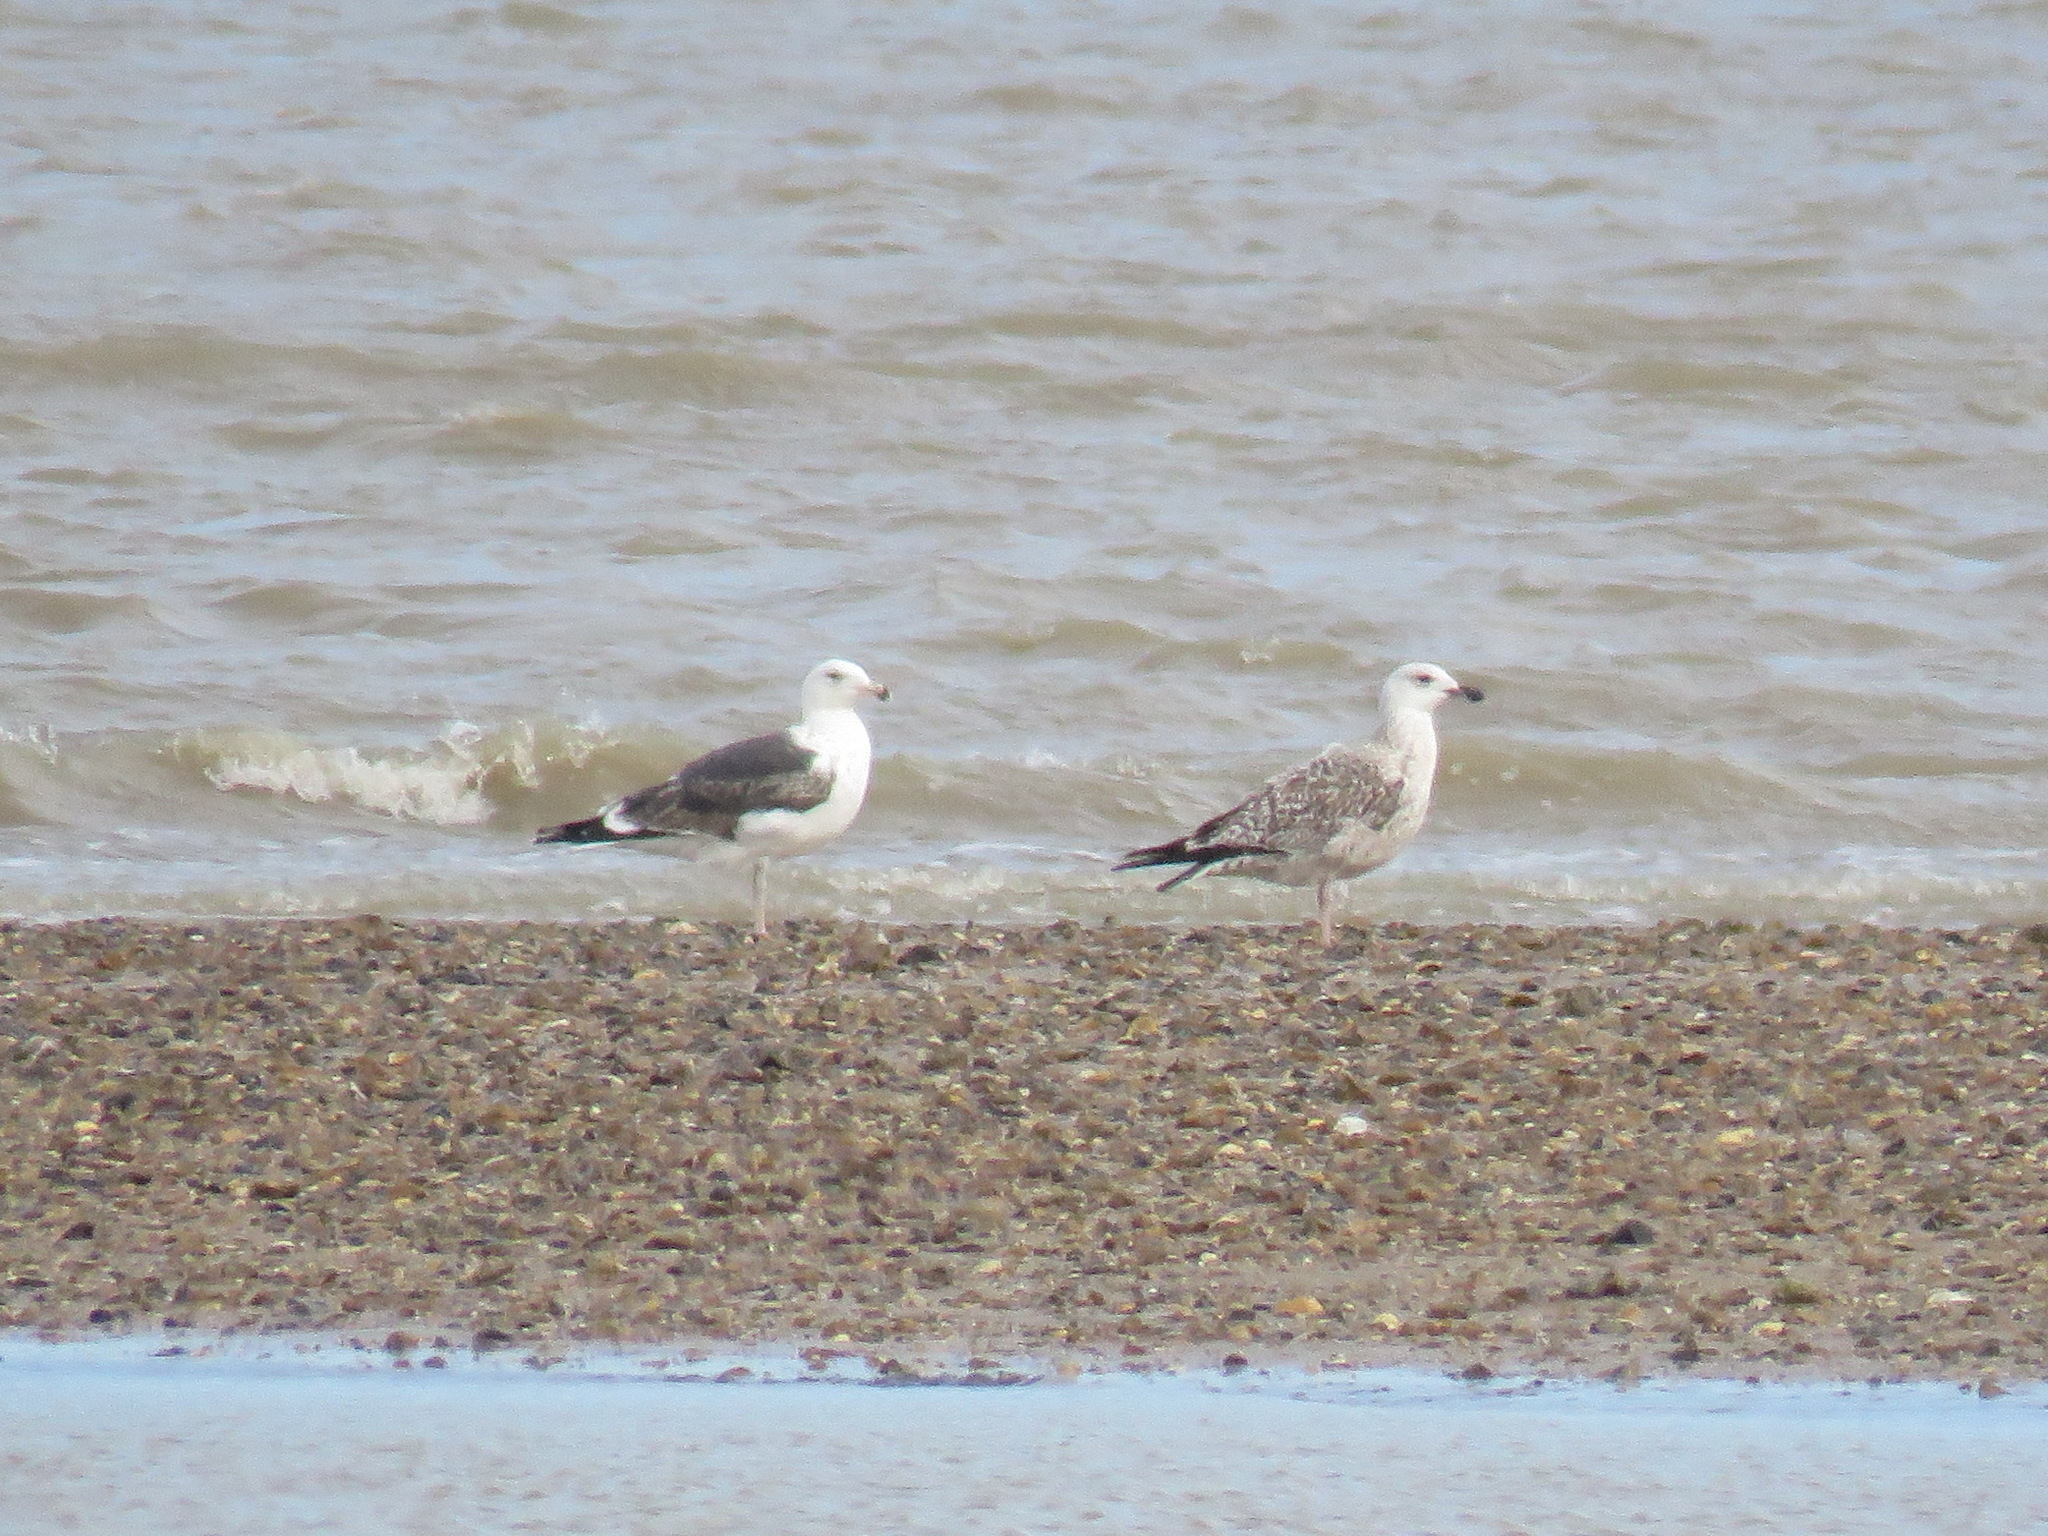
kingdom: Animalia
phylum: Chordata
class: Aves
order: Charadriiformes
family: Laridae
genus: Larus
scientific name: Larus fuscus
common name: Lesser black-backed gull
